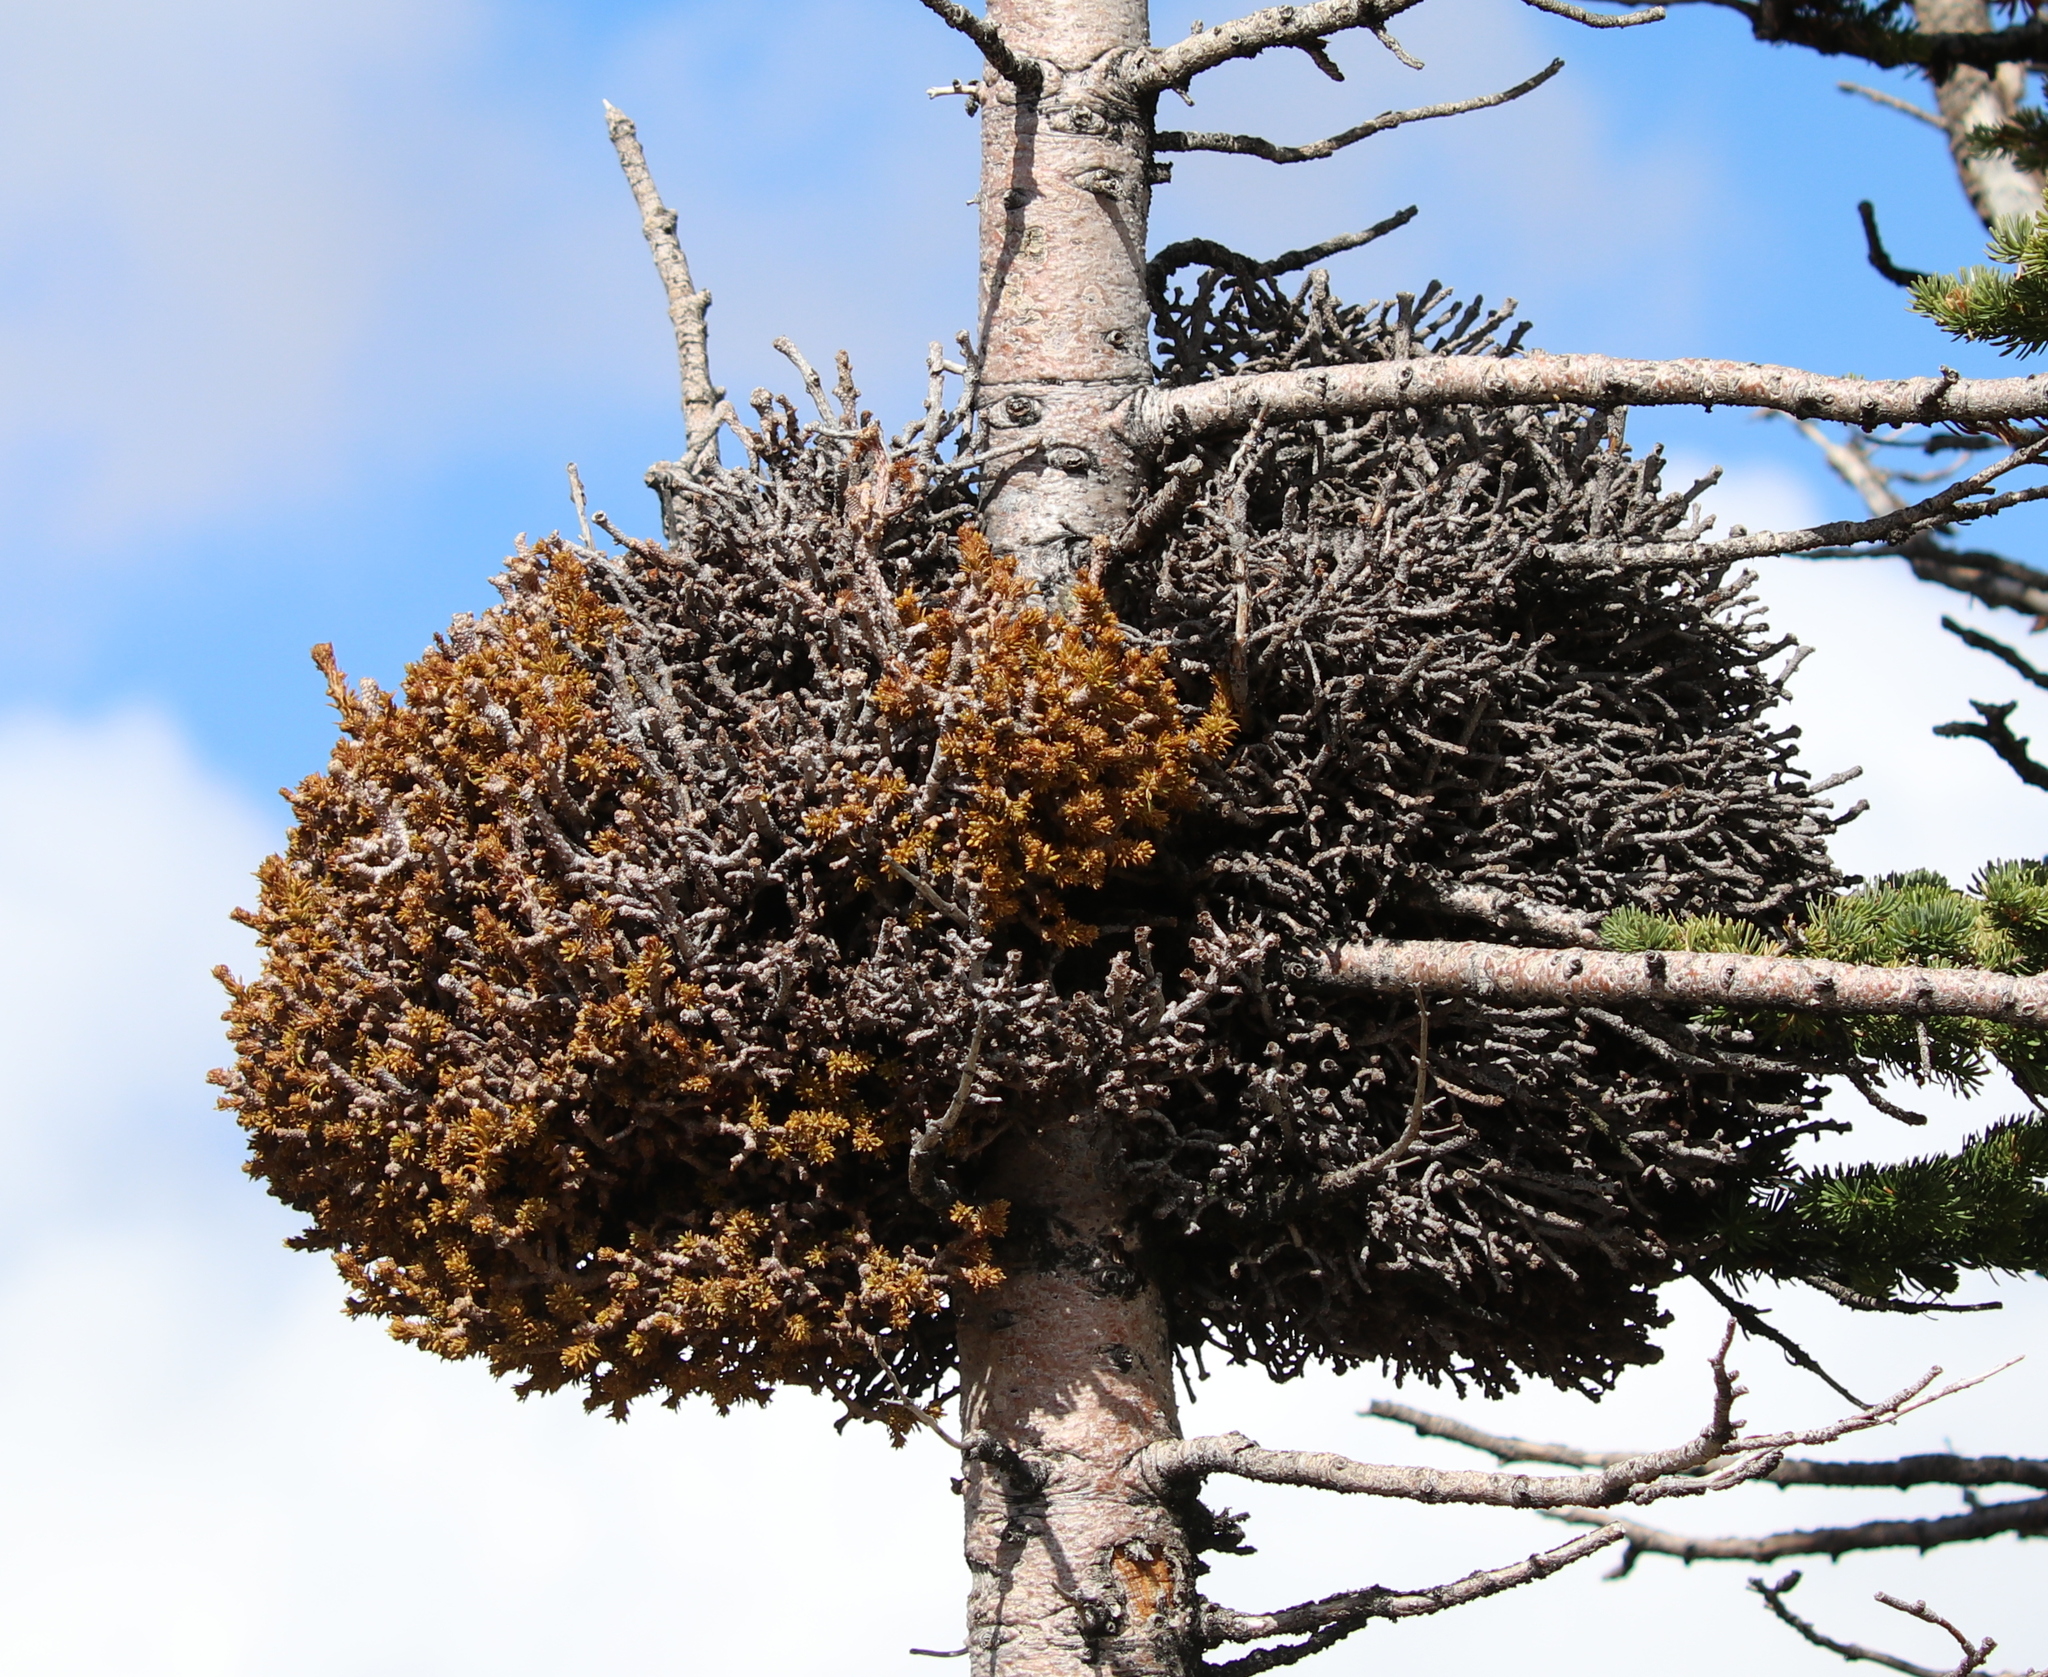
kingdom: Fungi
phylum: Basidiomycota
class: Pucciniomycetes
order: Pucciniales
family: Coleosporiaceae
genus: Chrysomyxa
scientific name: Chrysomyxa arctostaphyli
